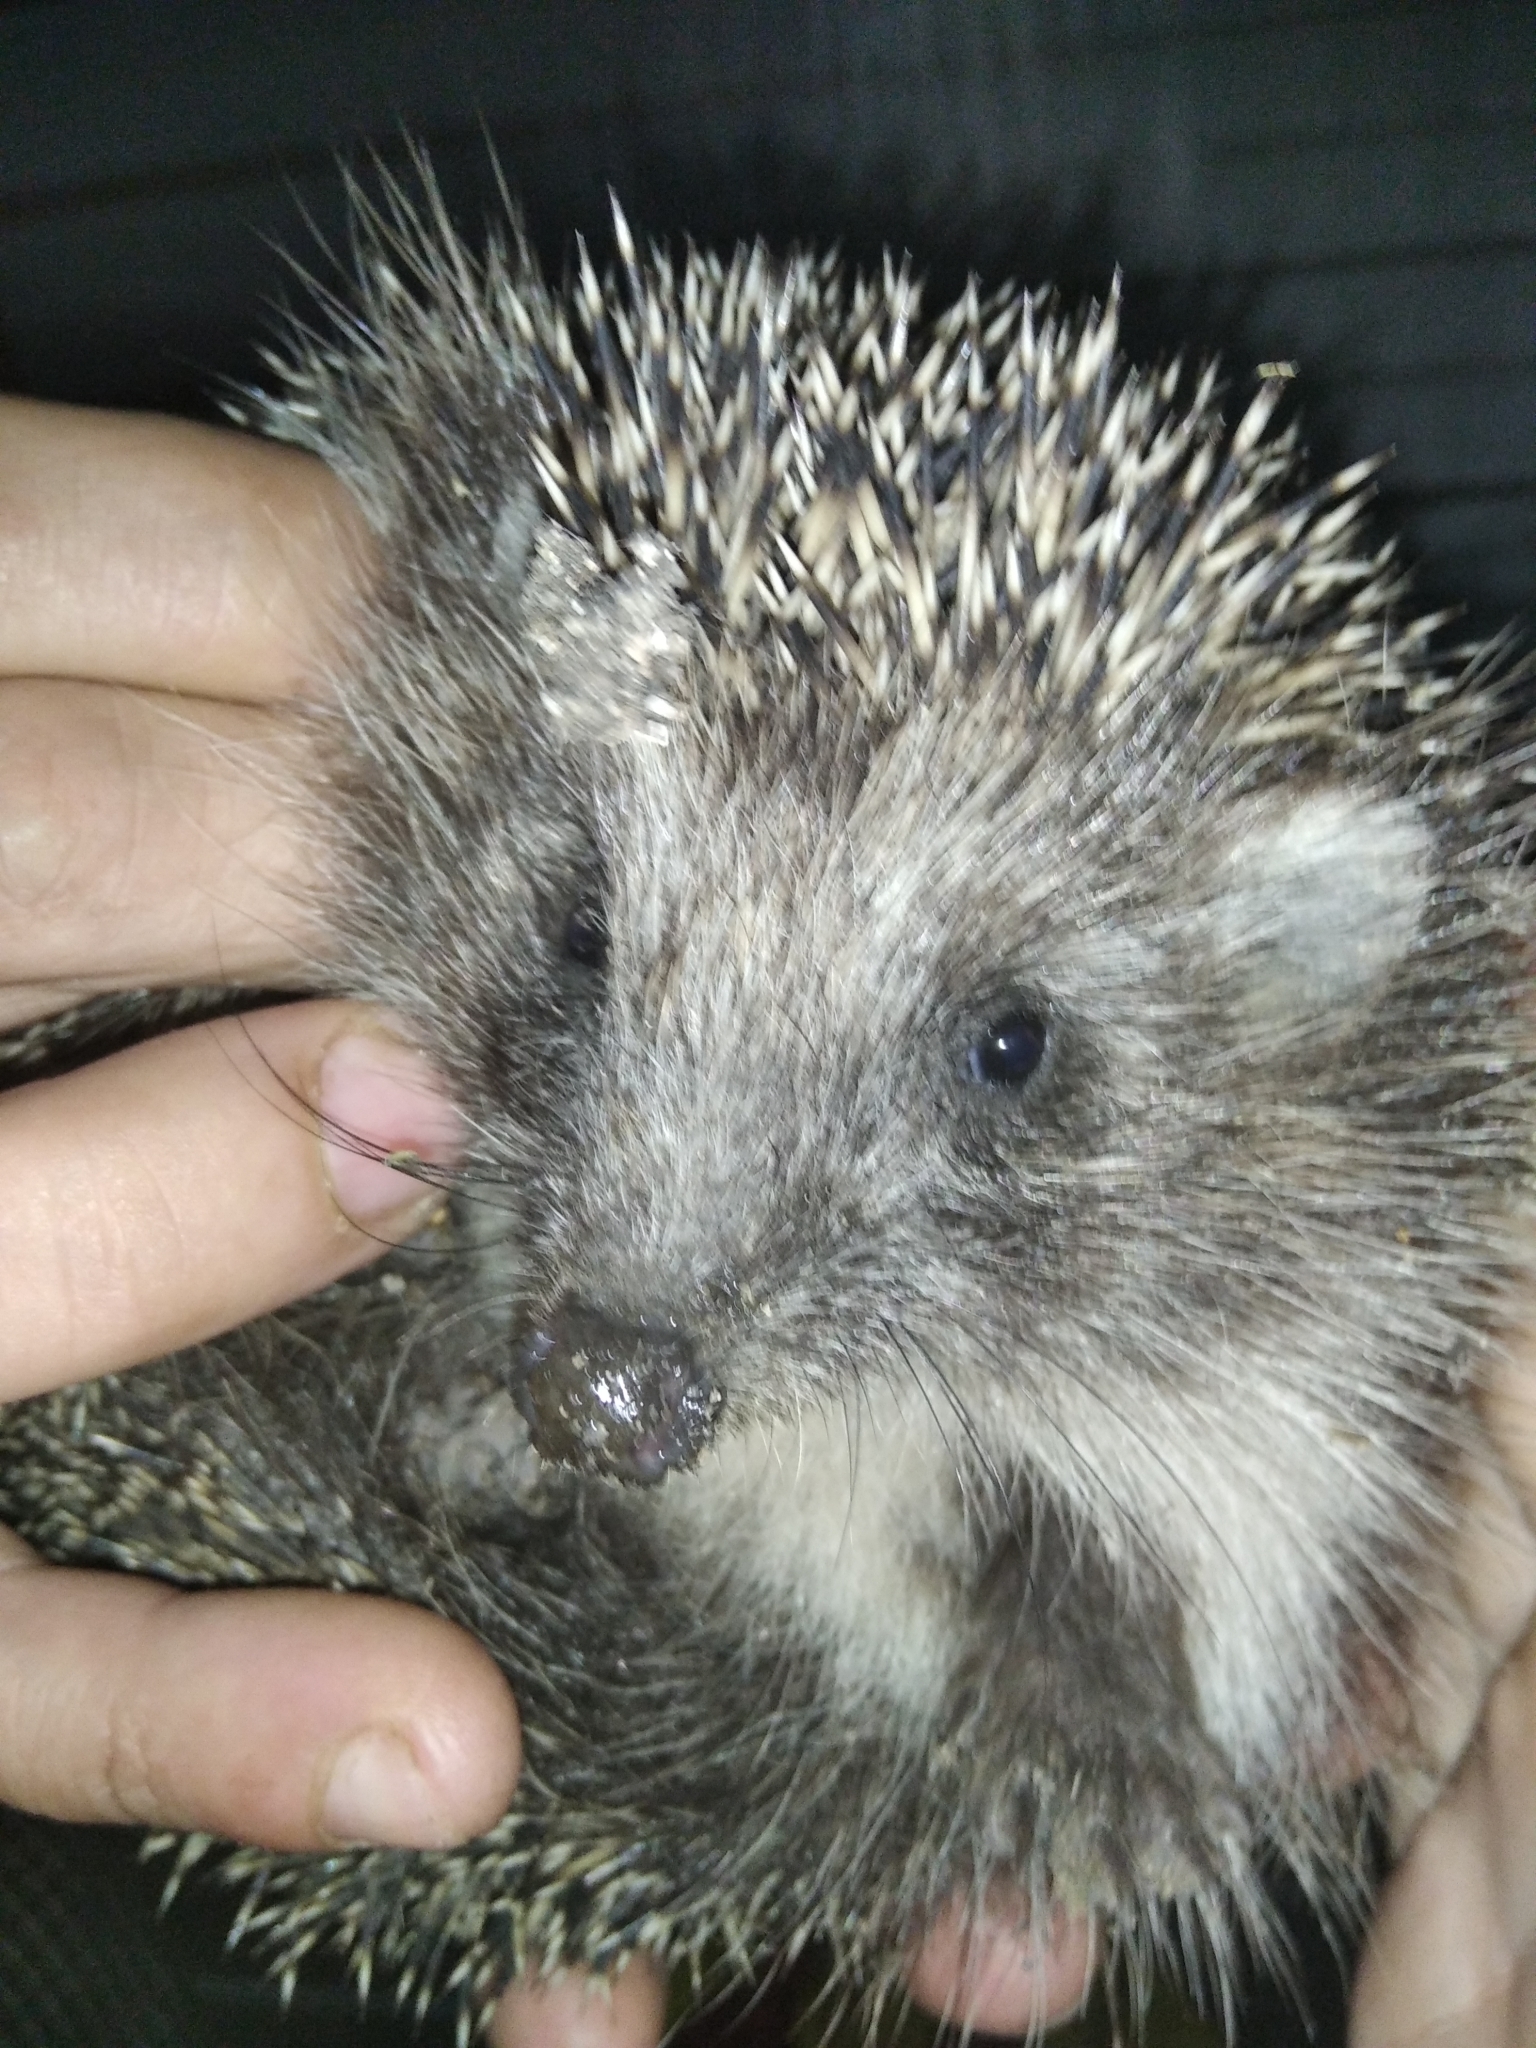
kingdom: Animalia
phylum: Chordata
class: Mammalia
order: Erinaceomorpha
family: Erinaceidae
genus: Erinaceus
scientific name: Erinaceus roumanicus
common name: Northern white-breasted hedgehog
